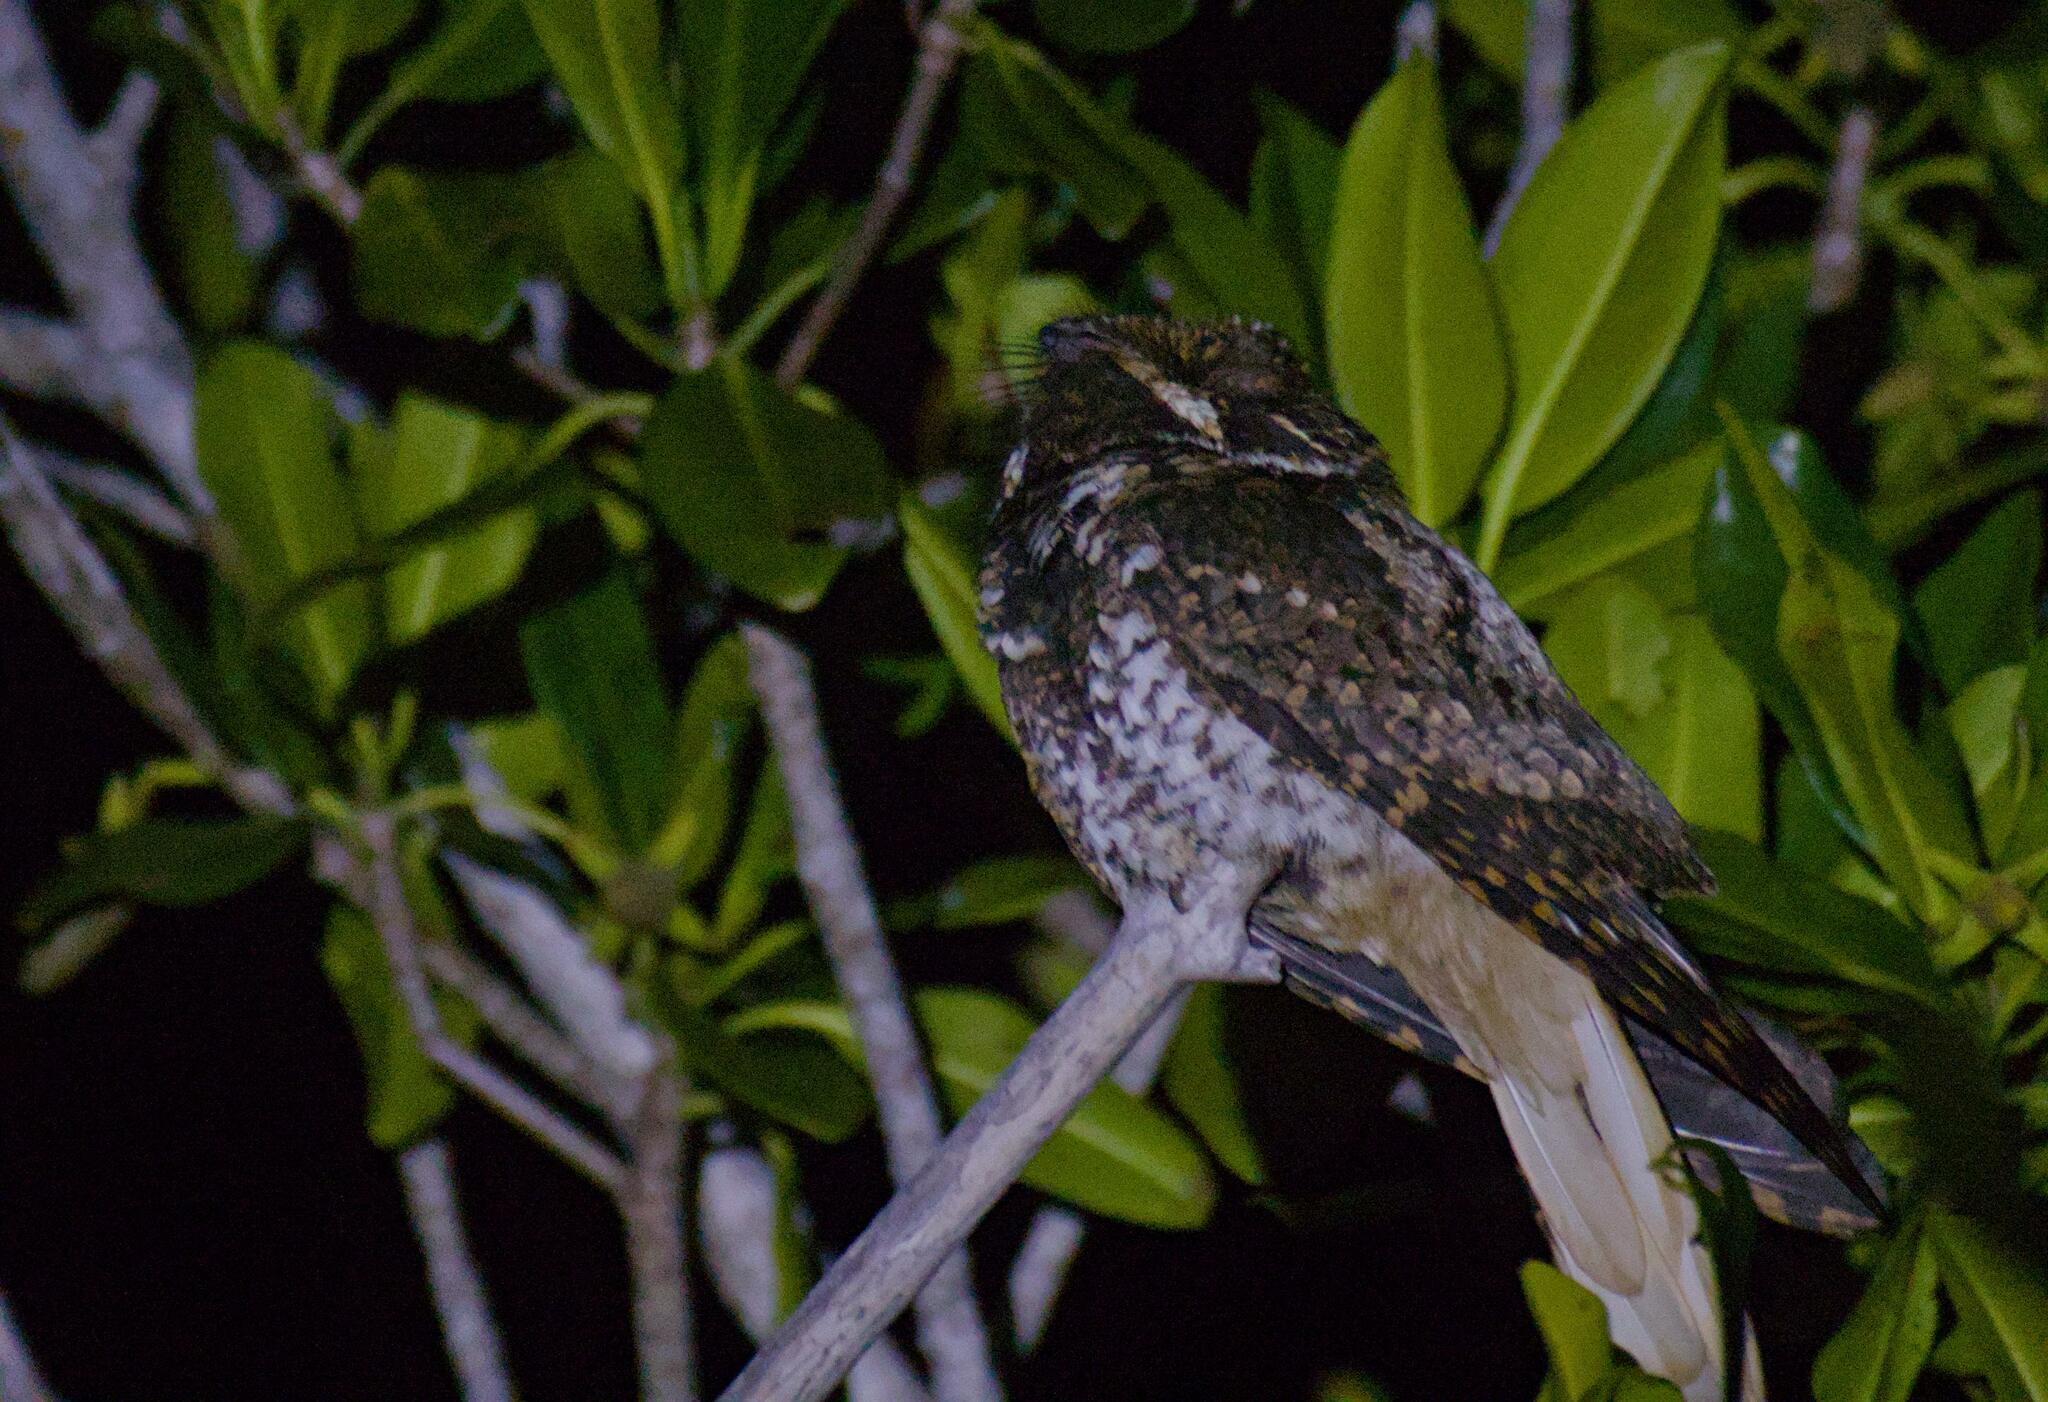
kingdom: Animalia
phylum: Chordata
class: Aves
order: Caprimulgiformes
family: Caprimulgidae
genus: Antrostomus
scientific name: Antrostomus badius
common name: Yucatan nightjar
